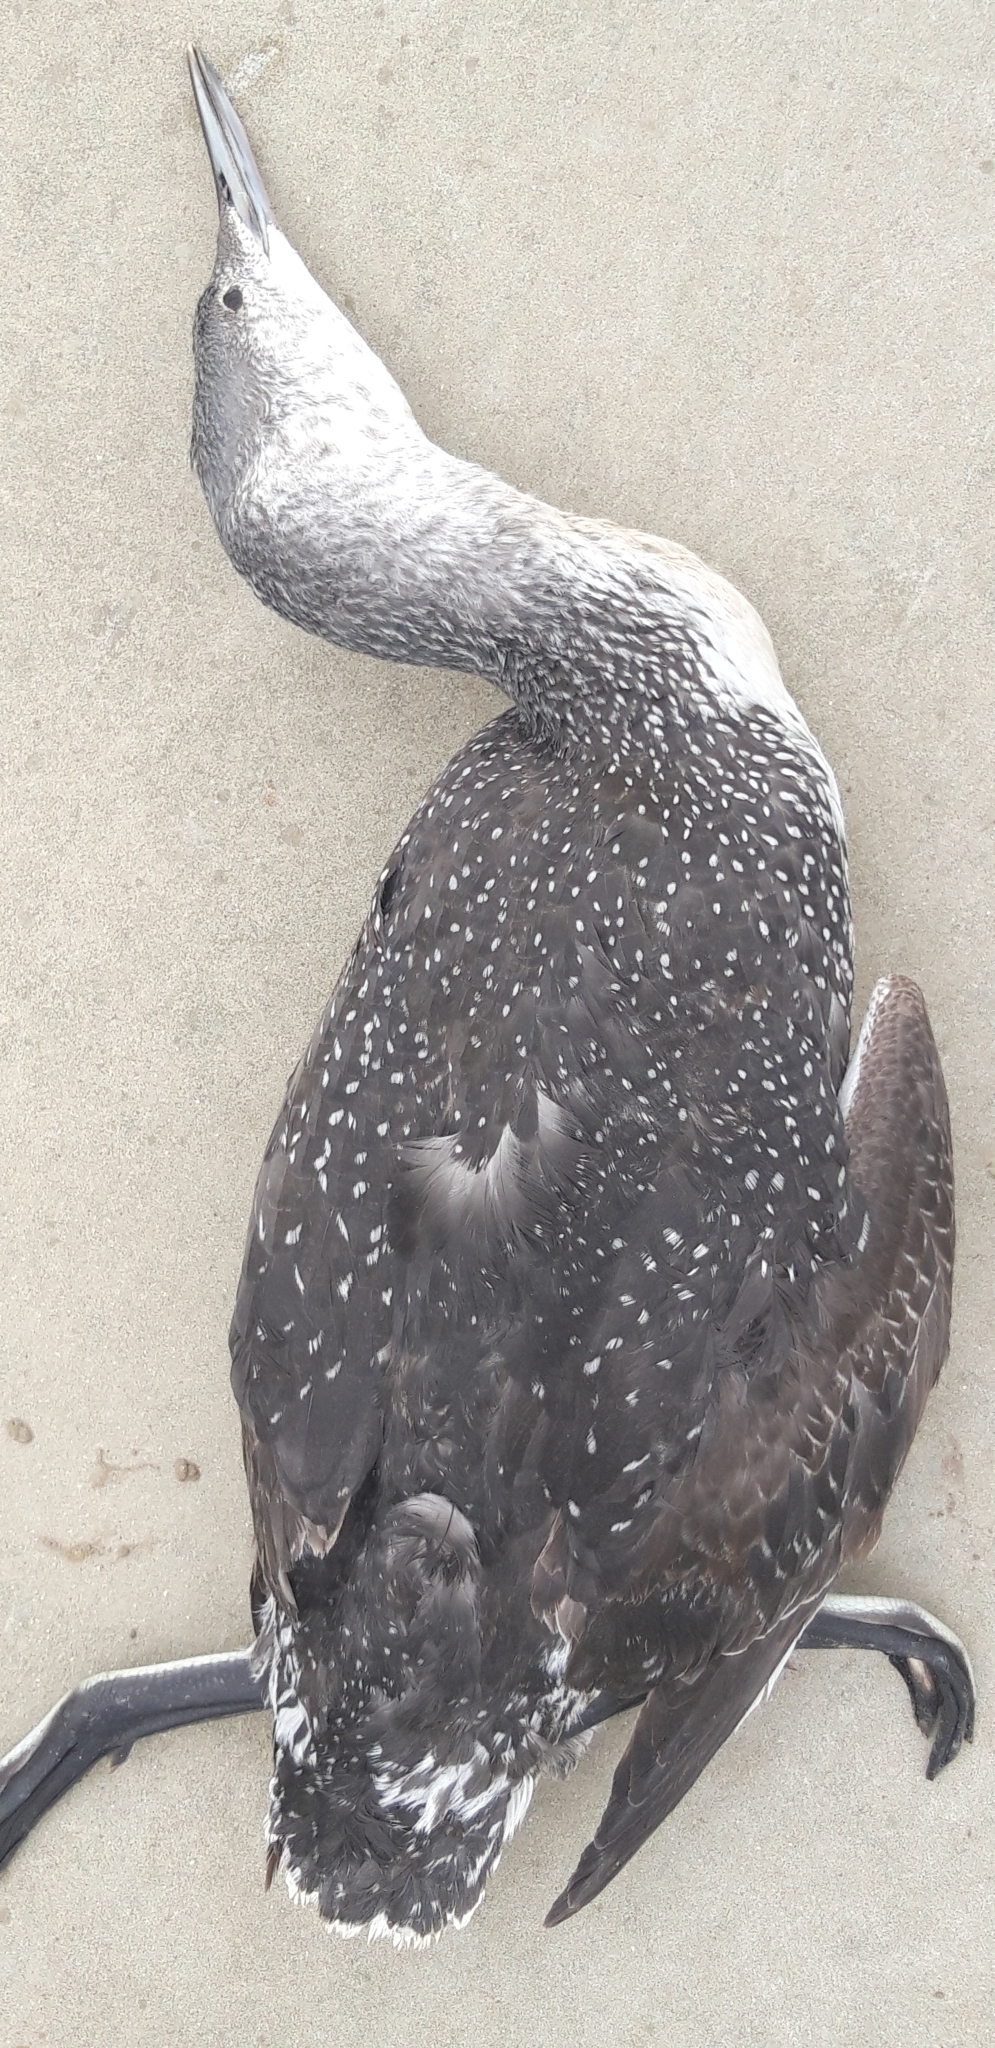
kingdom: Animalia
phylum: Chordata
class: Aves
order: Gaviiformes
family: Gaviidae
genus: Gavia
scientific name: Gavia stellata
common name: Red-throated loon
